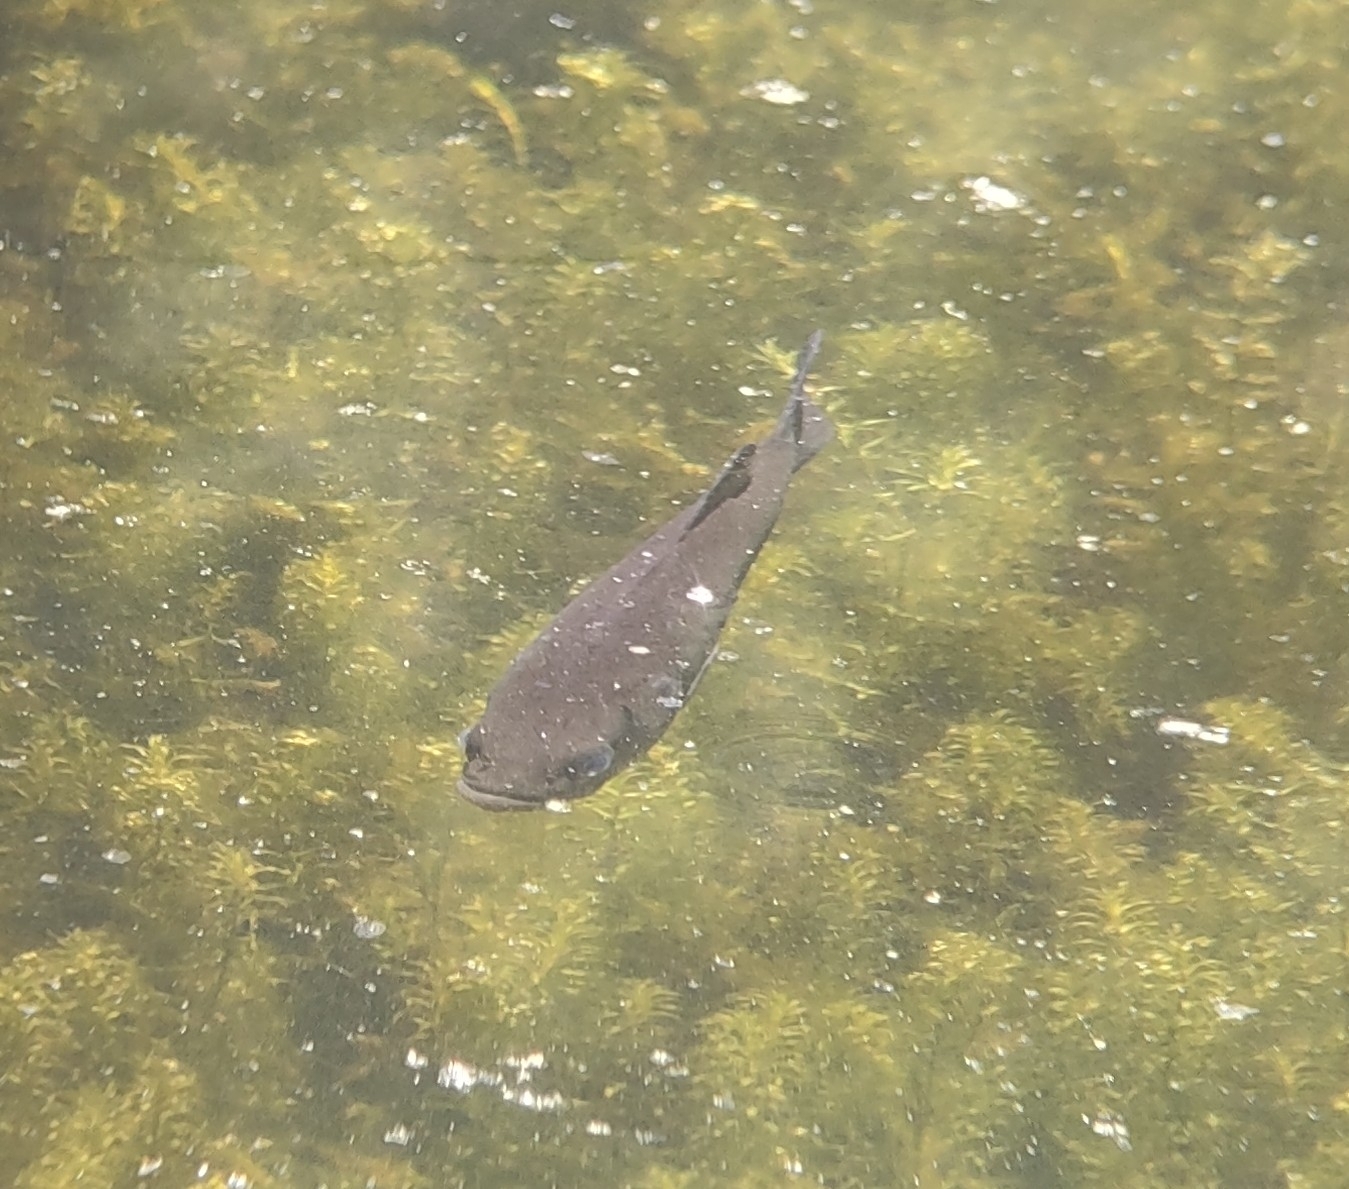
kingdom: Animalia
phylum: Chordata
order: Perciformes
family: Centrarchidae
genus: Micropterus
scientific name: Micropterus
